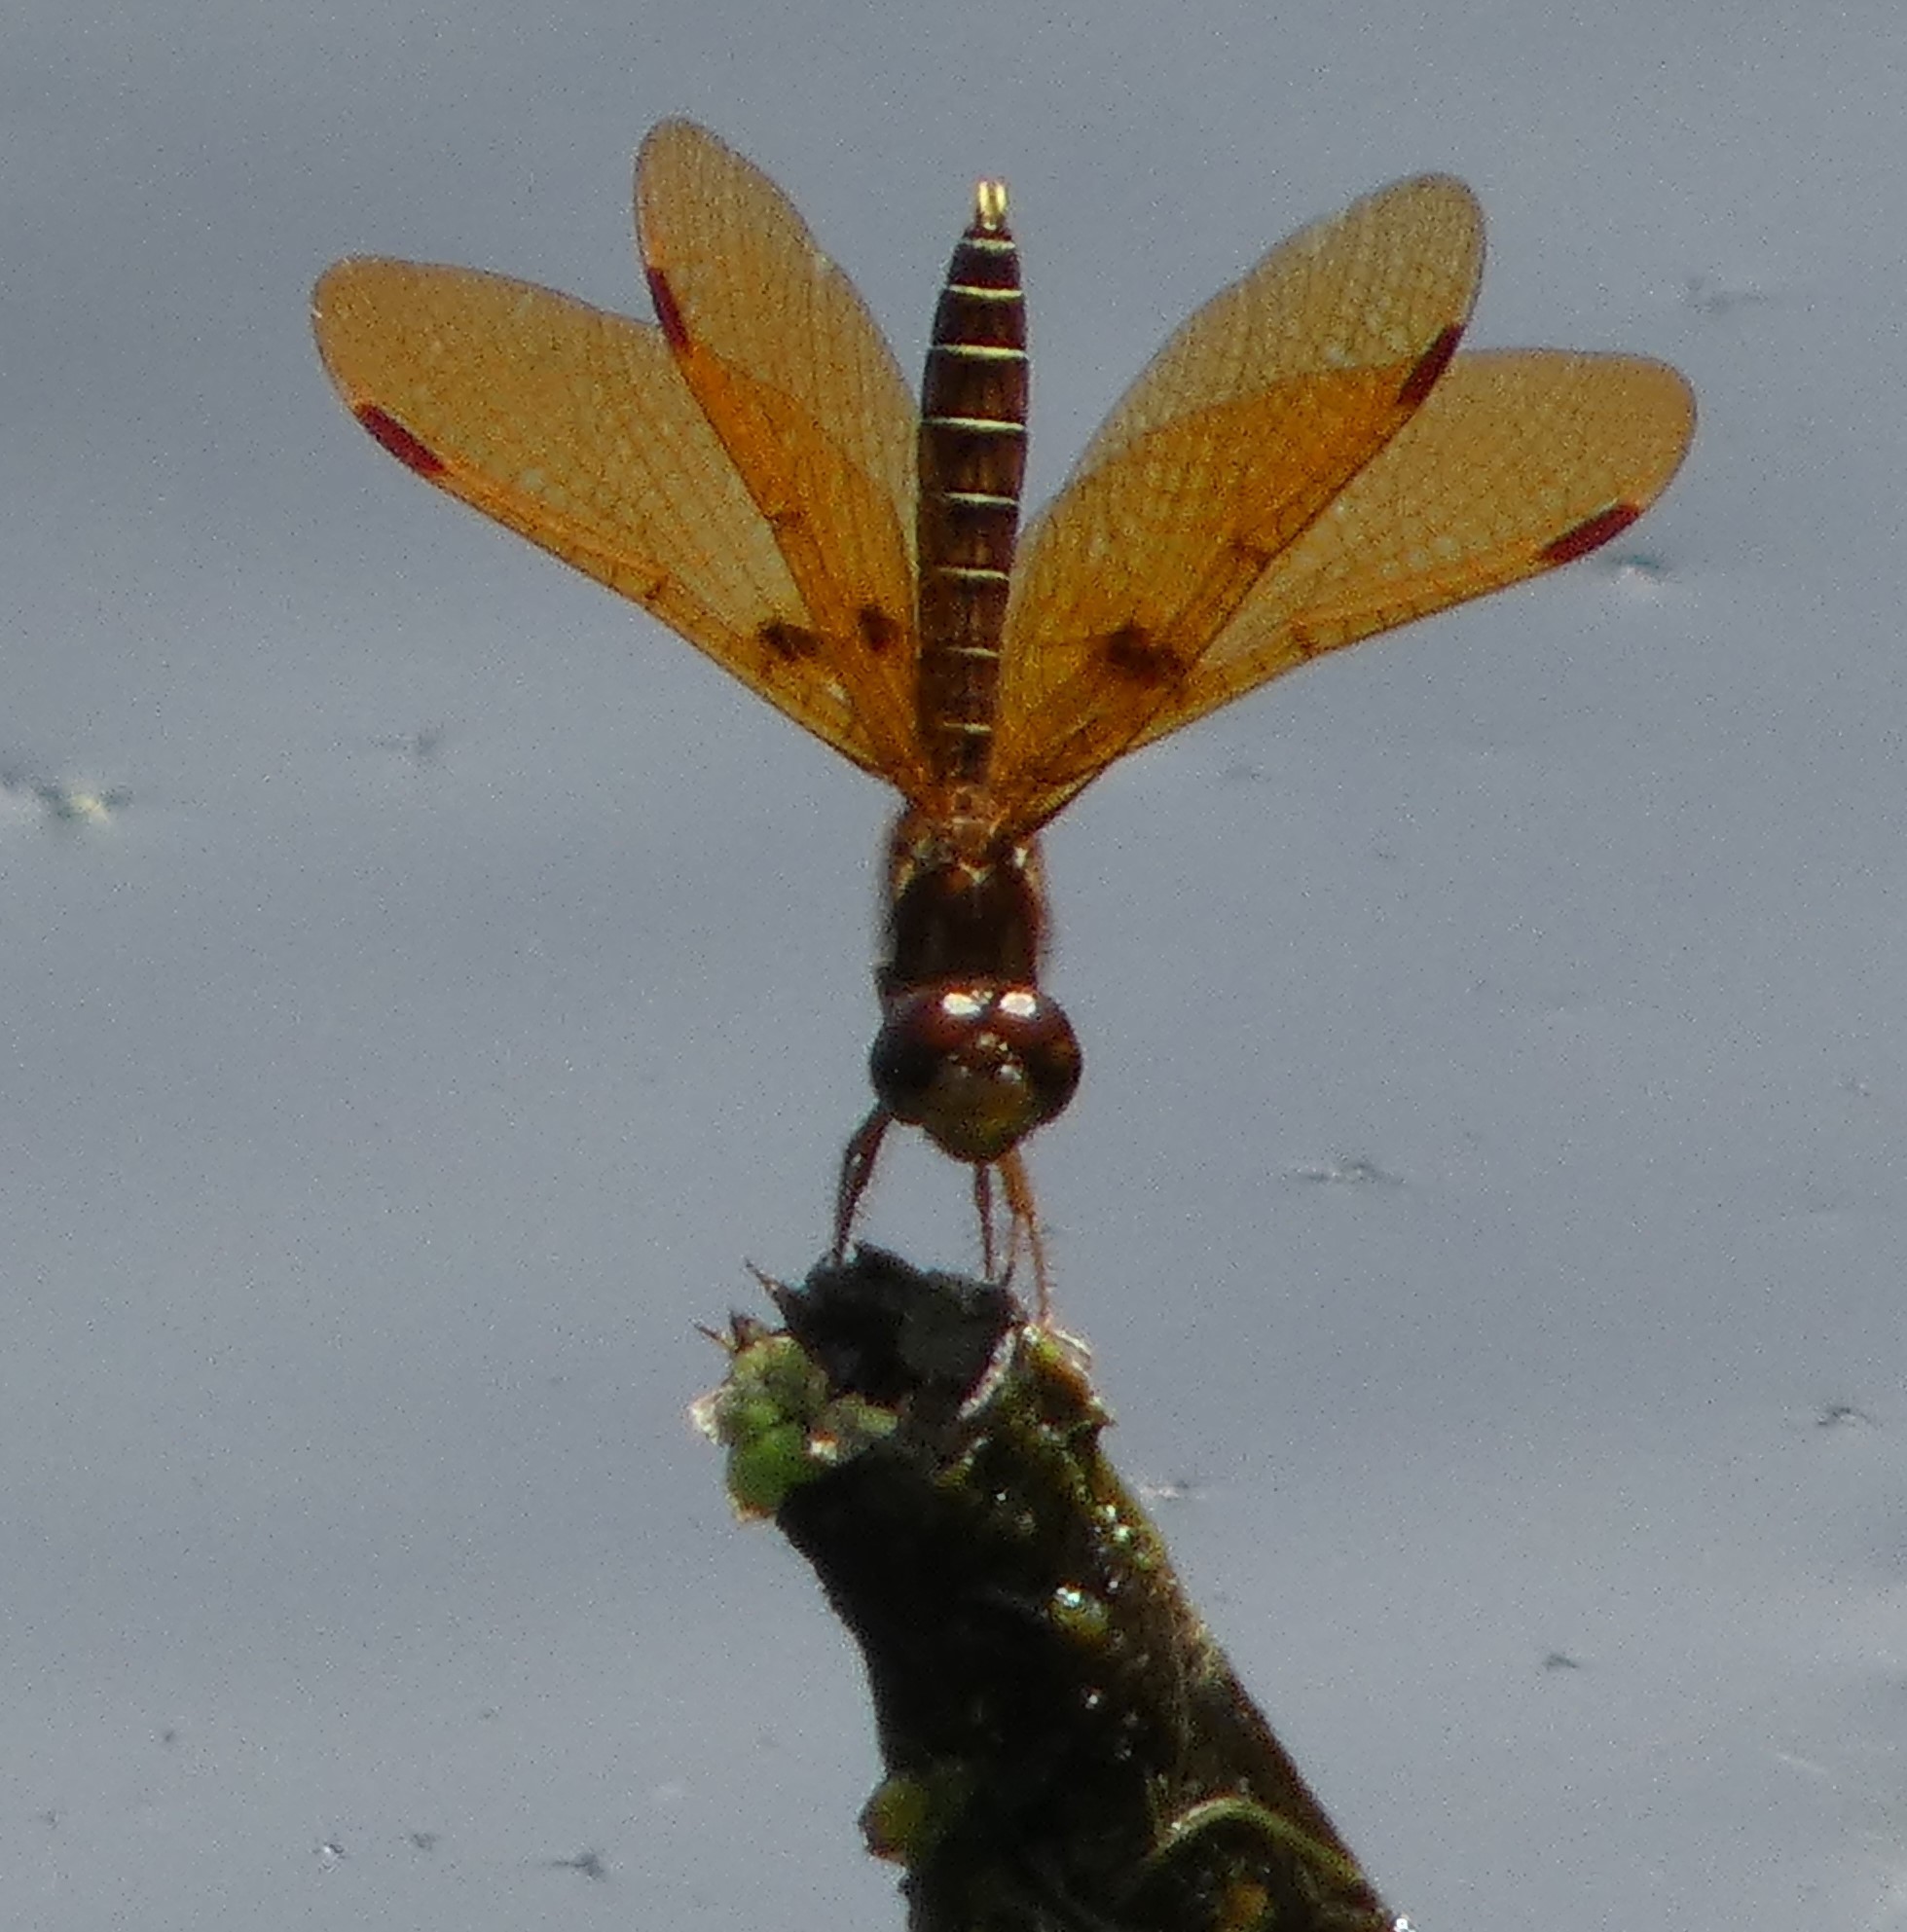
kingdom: Animalia
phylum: Arthropoda
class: Insecta
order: Odonata
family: Libellulidae
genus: Perithemis
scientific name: Perithemis tenera
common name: Eastern amberwing
